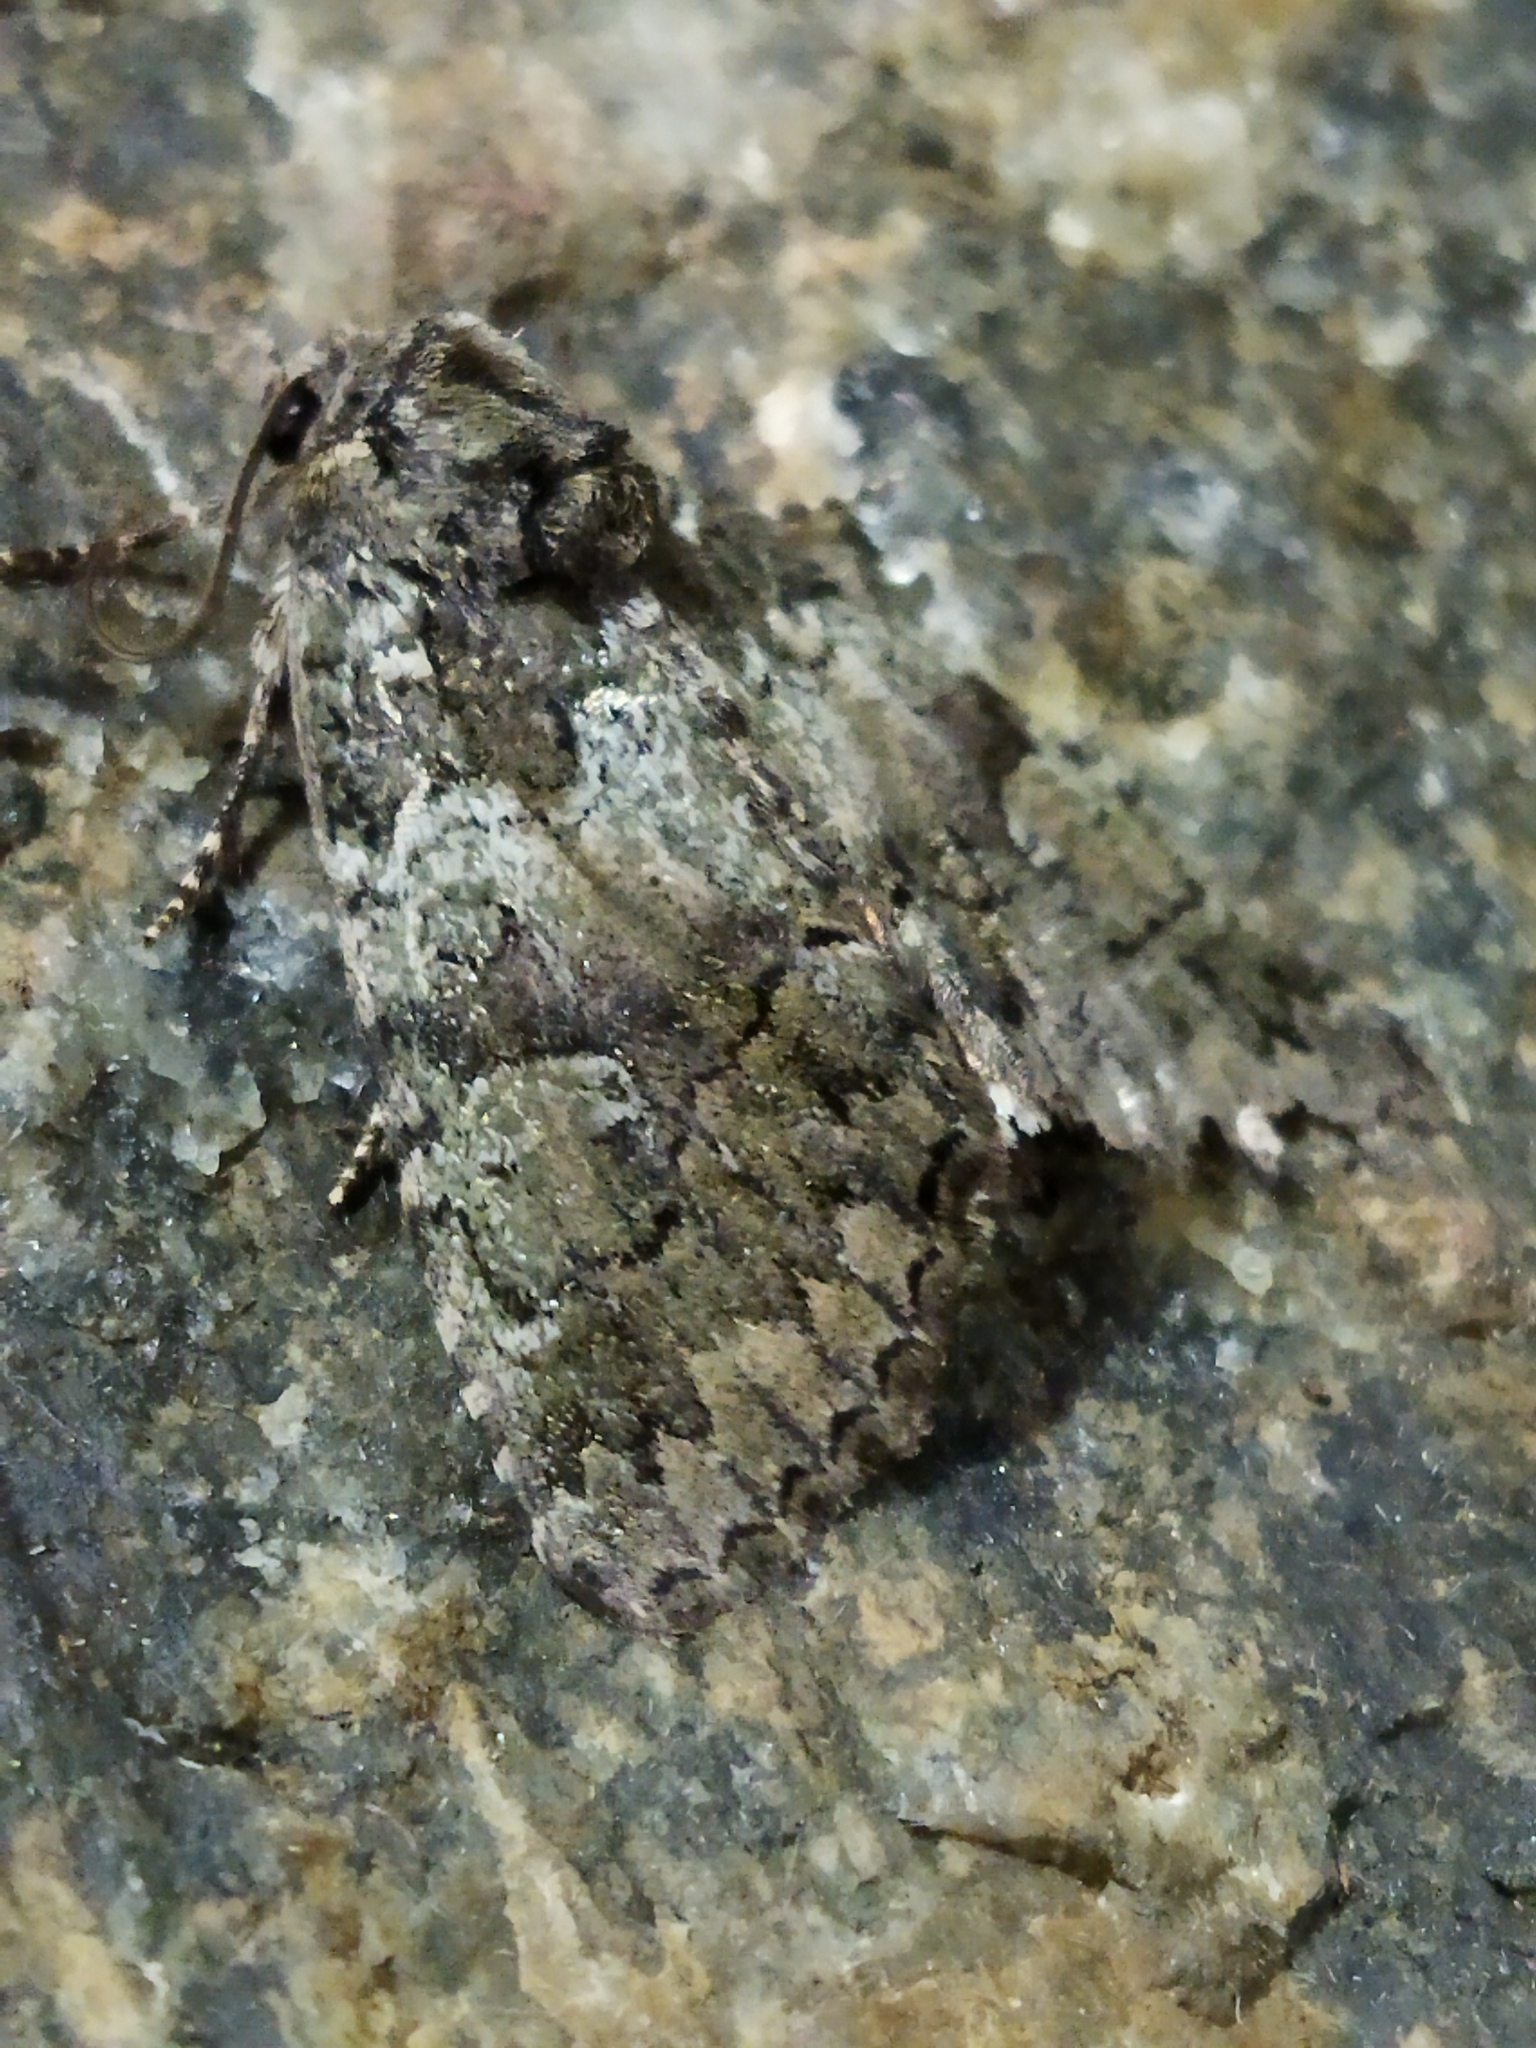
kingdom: Animalia
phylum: Arthropoda
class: Insecta
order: Lepidoptera
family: Noctuidae
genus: Olivenebula
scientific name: Olivenebula subsericata
